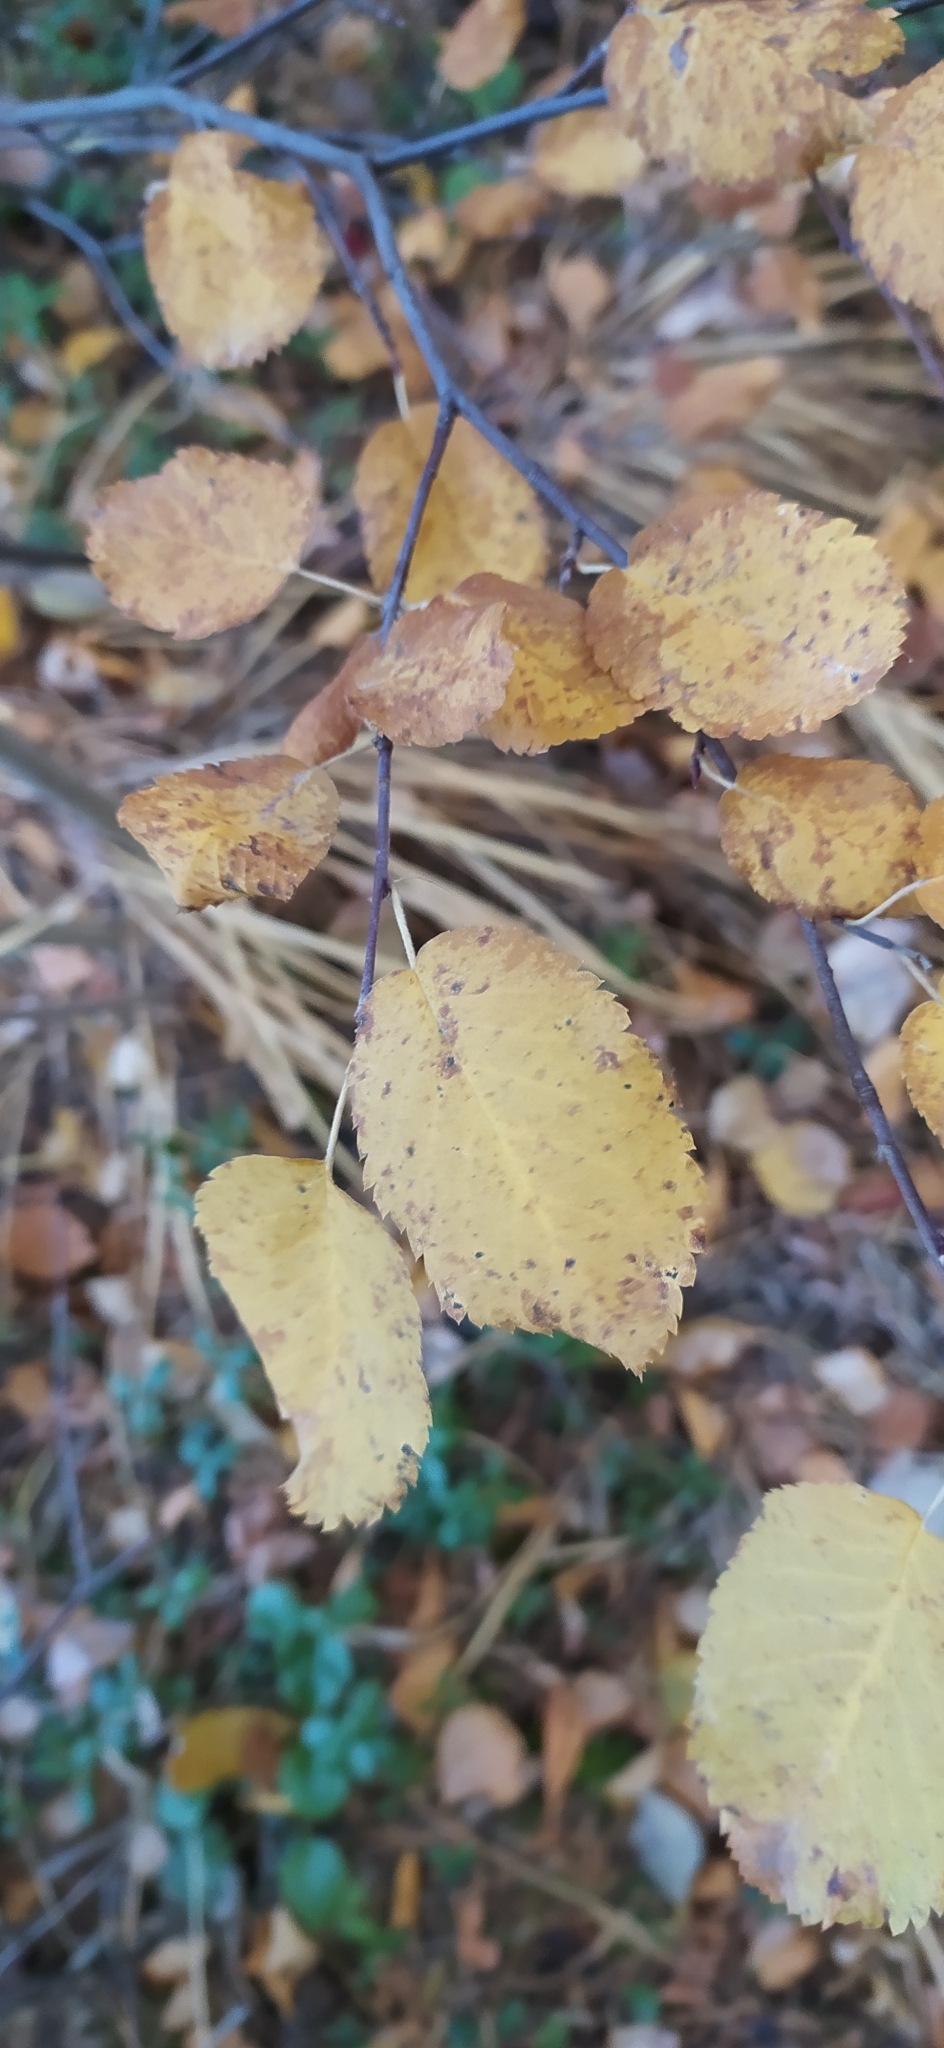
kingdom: Plantae
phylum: Tracheophyta
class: Magnoliopsida
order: Rosales
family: Rosaceae
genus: Amelanchier
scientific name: Amelanchier alnifolia
